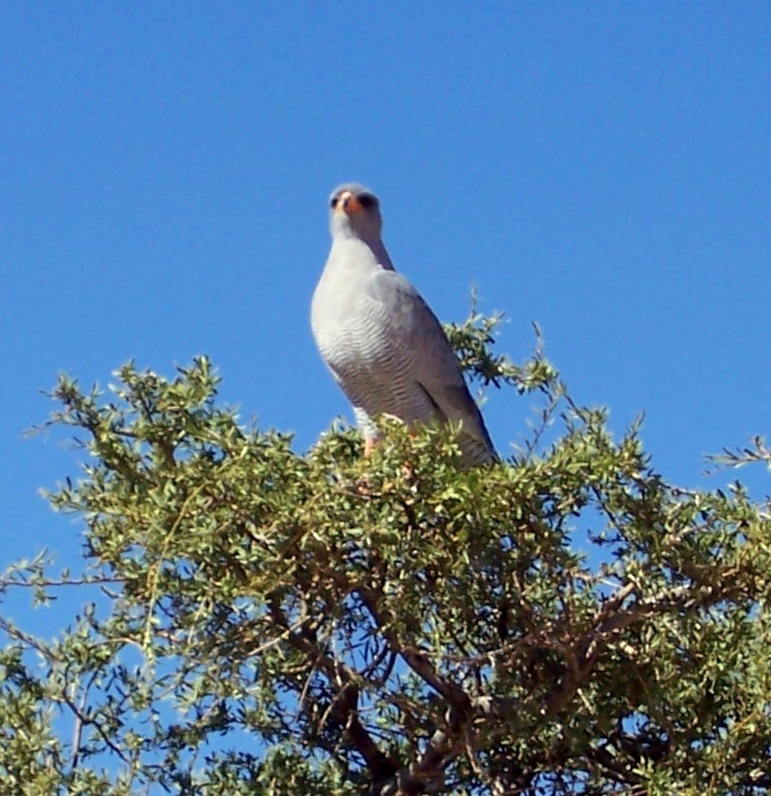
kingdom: Animalia
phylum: Chordata
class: Aves
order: Accipitriformes
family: Accipitridae
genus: Melierax
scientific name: Melierax canorus
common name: Pale chanting-goshawk
